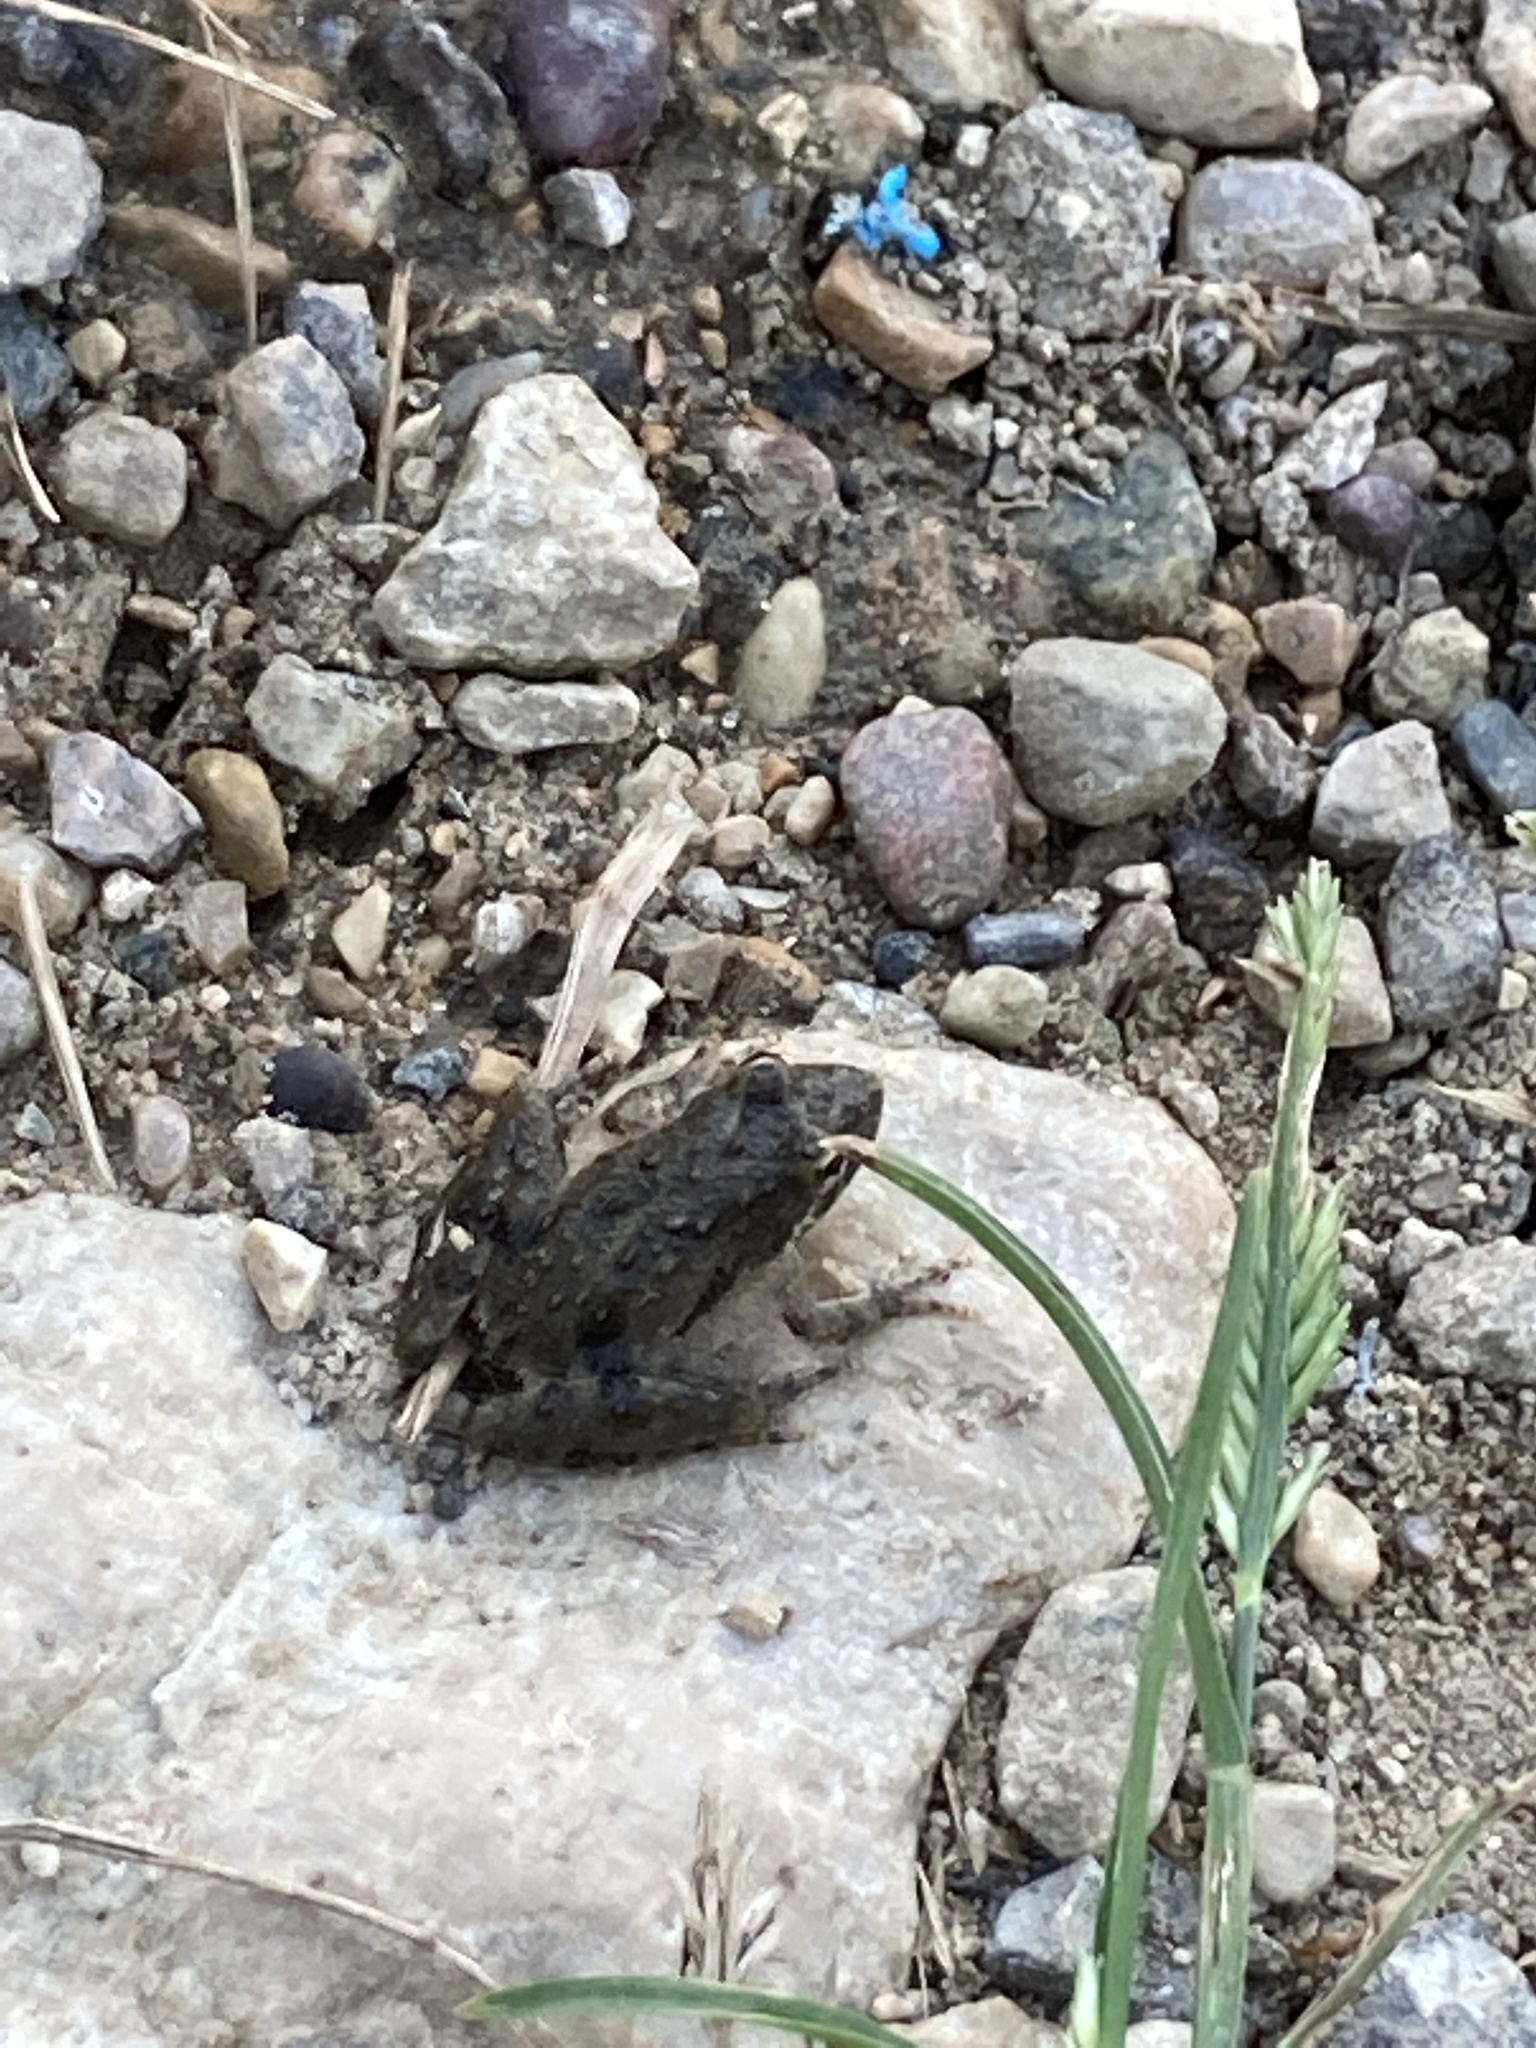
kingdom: Animalia
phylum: Chordata
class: Amphibia
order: Anura
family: Hylidae
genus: Acris
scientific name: Acris blanchardi
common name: Blanchard's cricket frog
